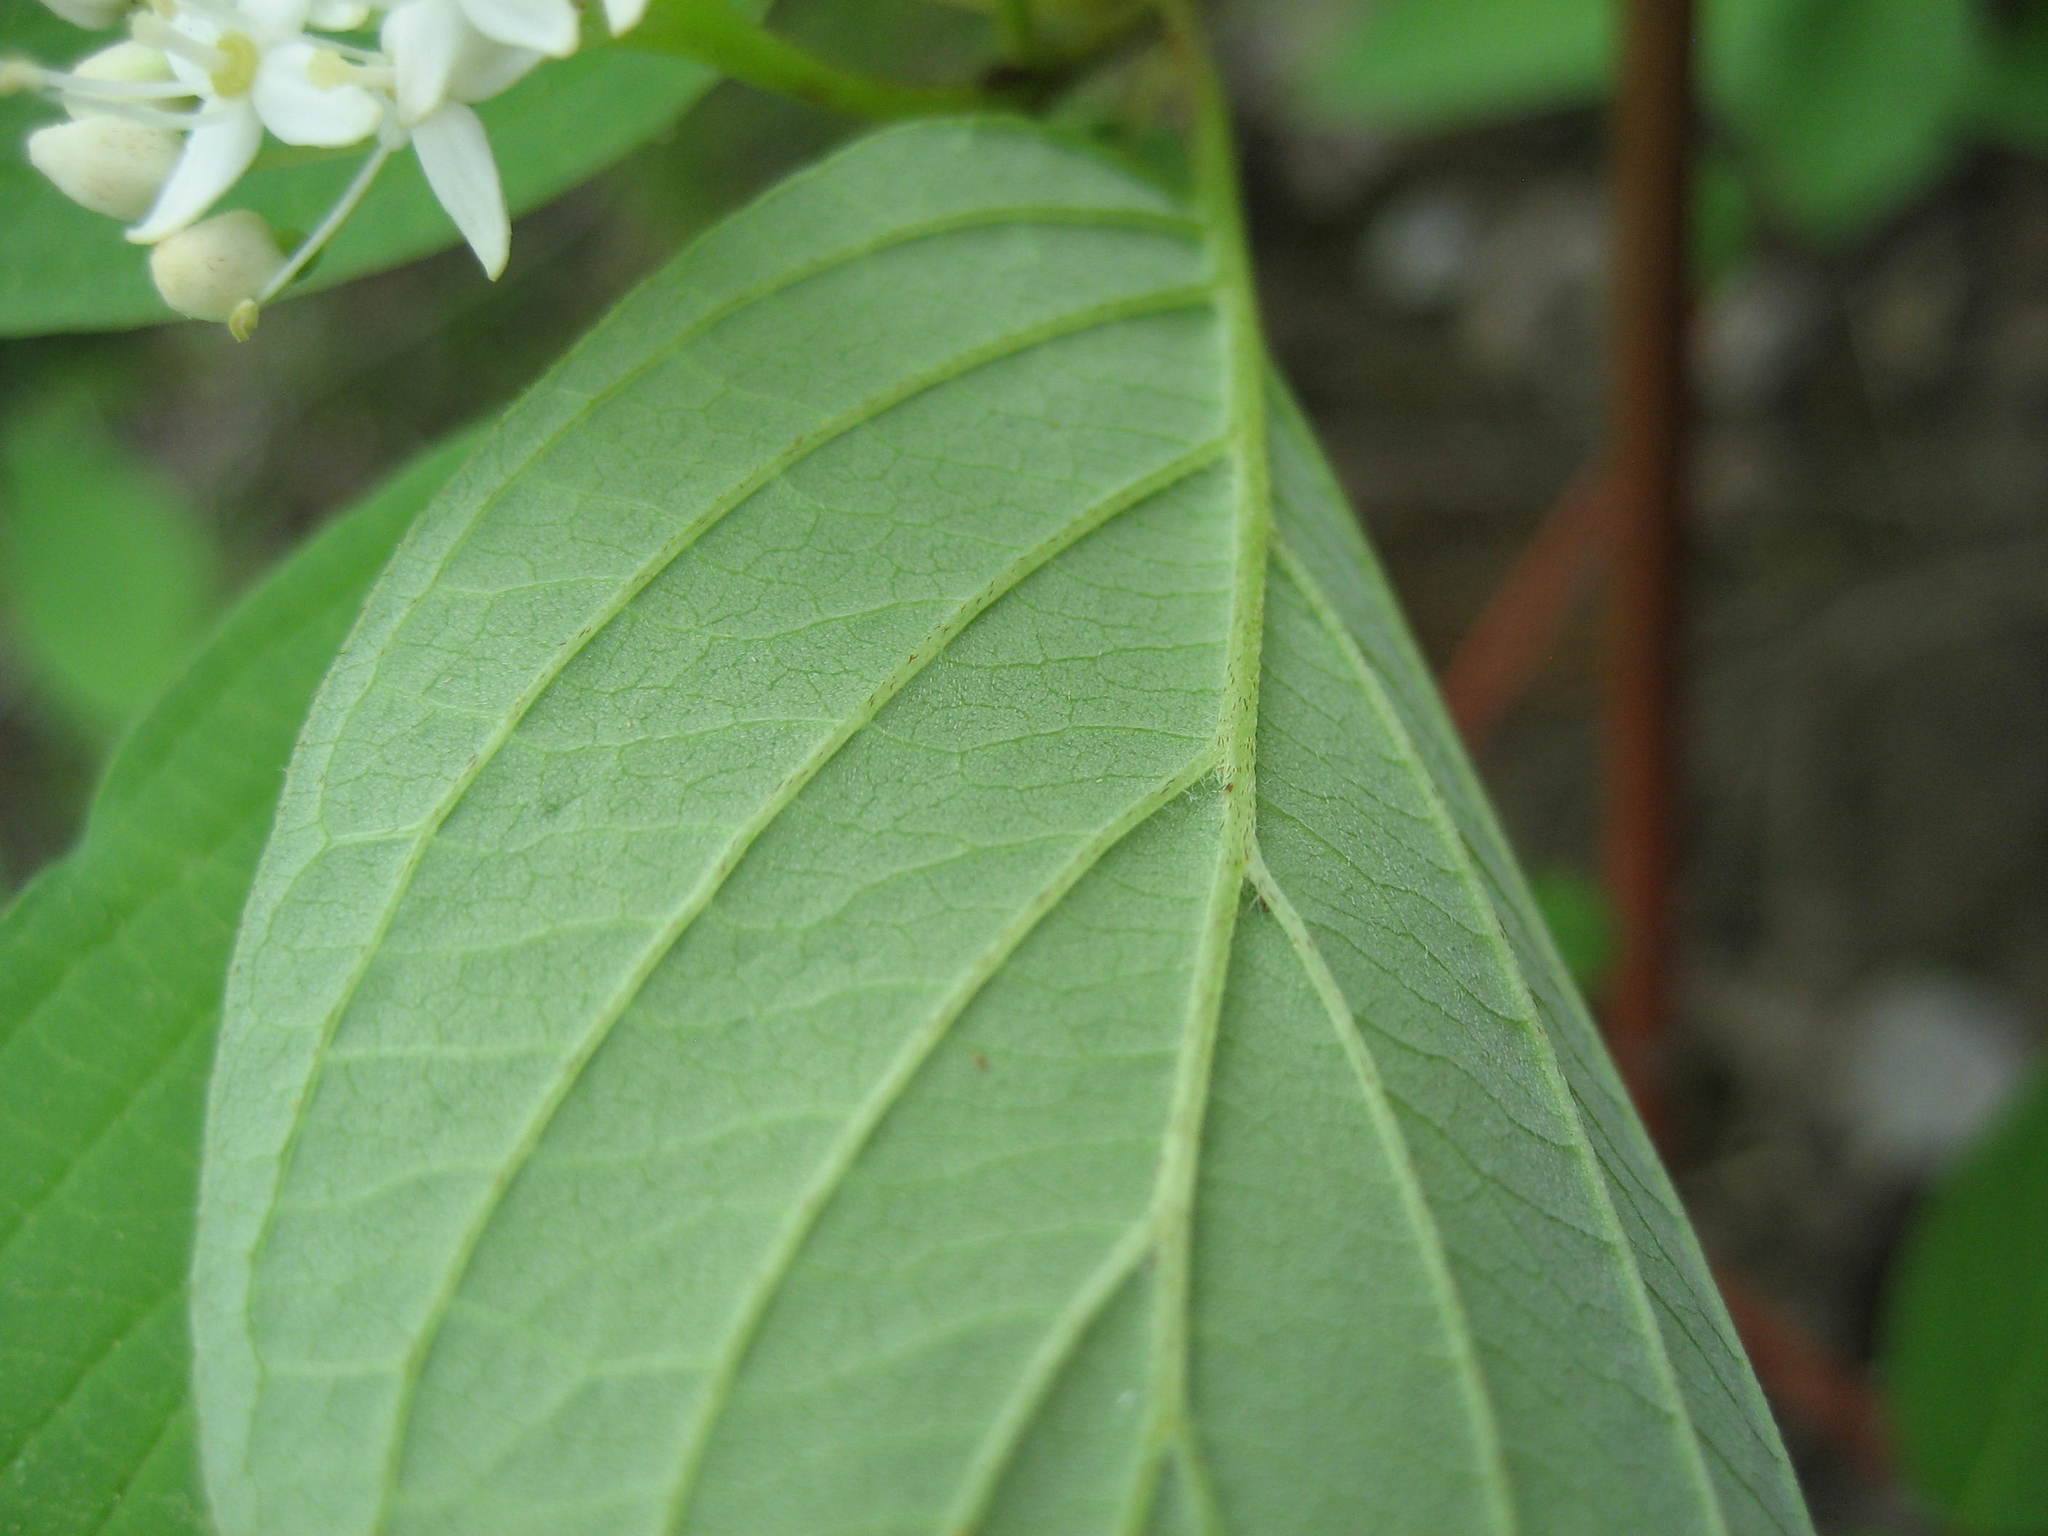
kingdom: Plantae
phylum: Tracheophyta
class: Magnoliopsida
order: Cornales
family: Cornaceae
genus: Cornus
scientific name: Cornus sericea
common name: Red-osier dogwood
